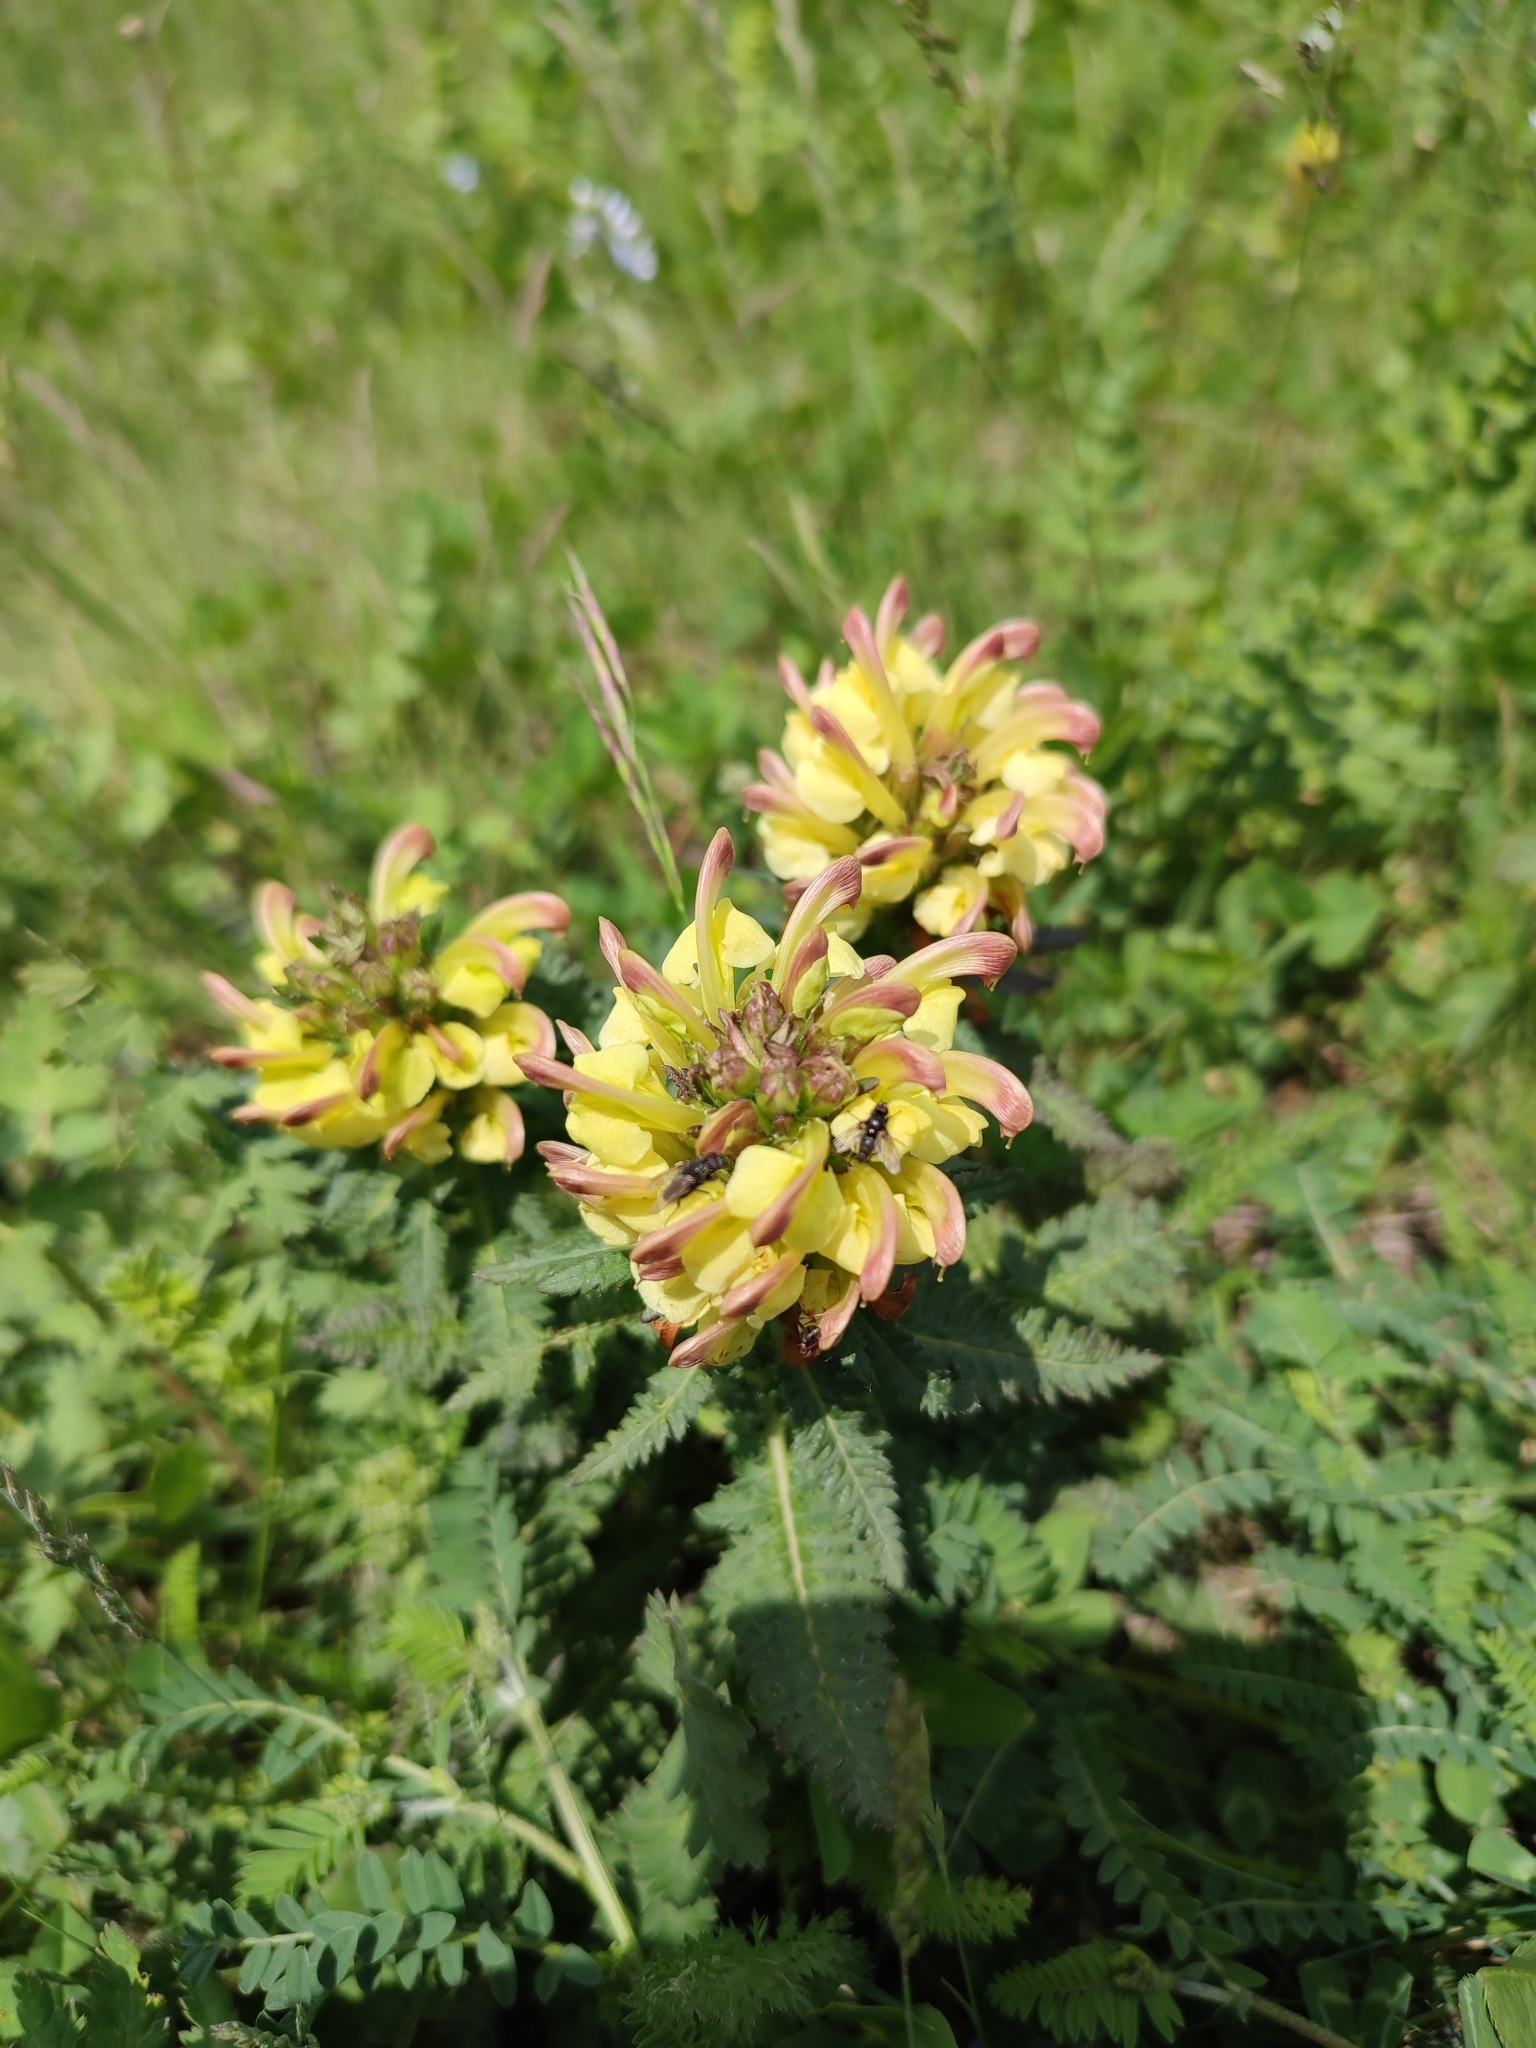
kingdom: Plantae
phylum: Tracheophyta
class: Magnoliopsida
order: Lamiales
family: Orobanchaceae
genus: Pedicularis
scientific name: Pedicularis chroorrhyncha
